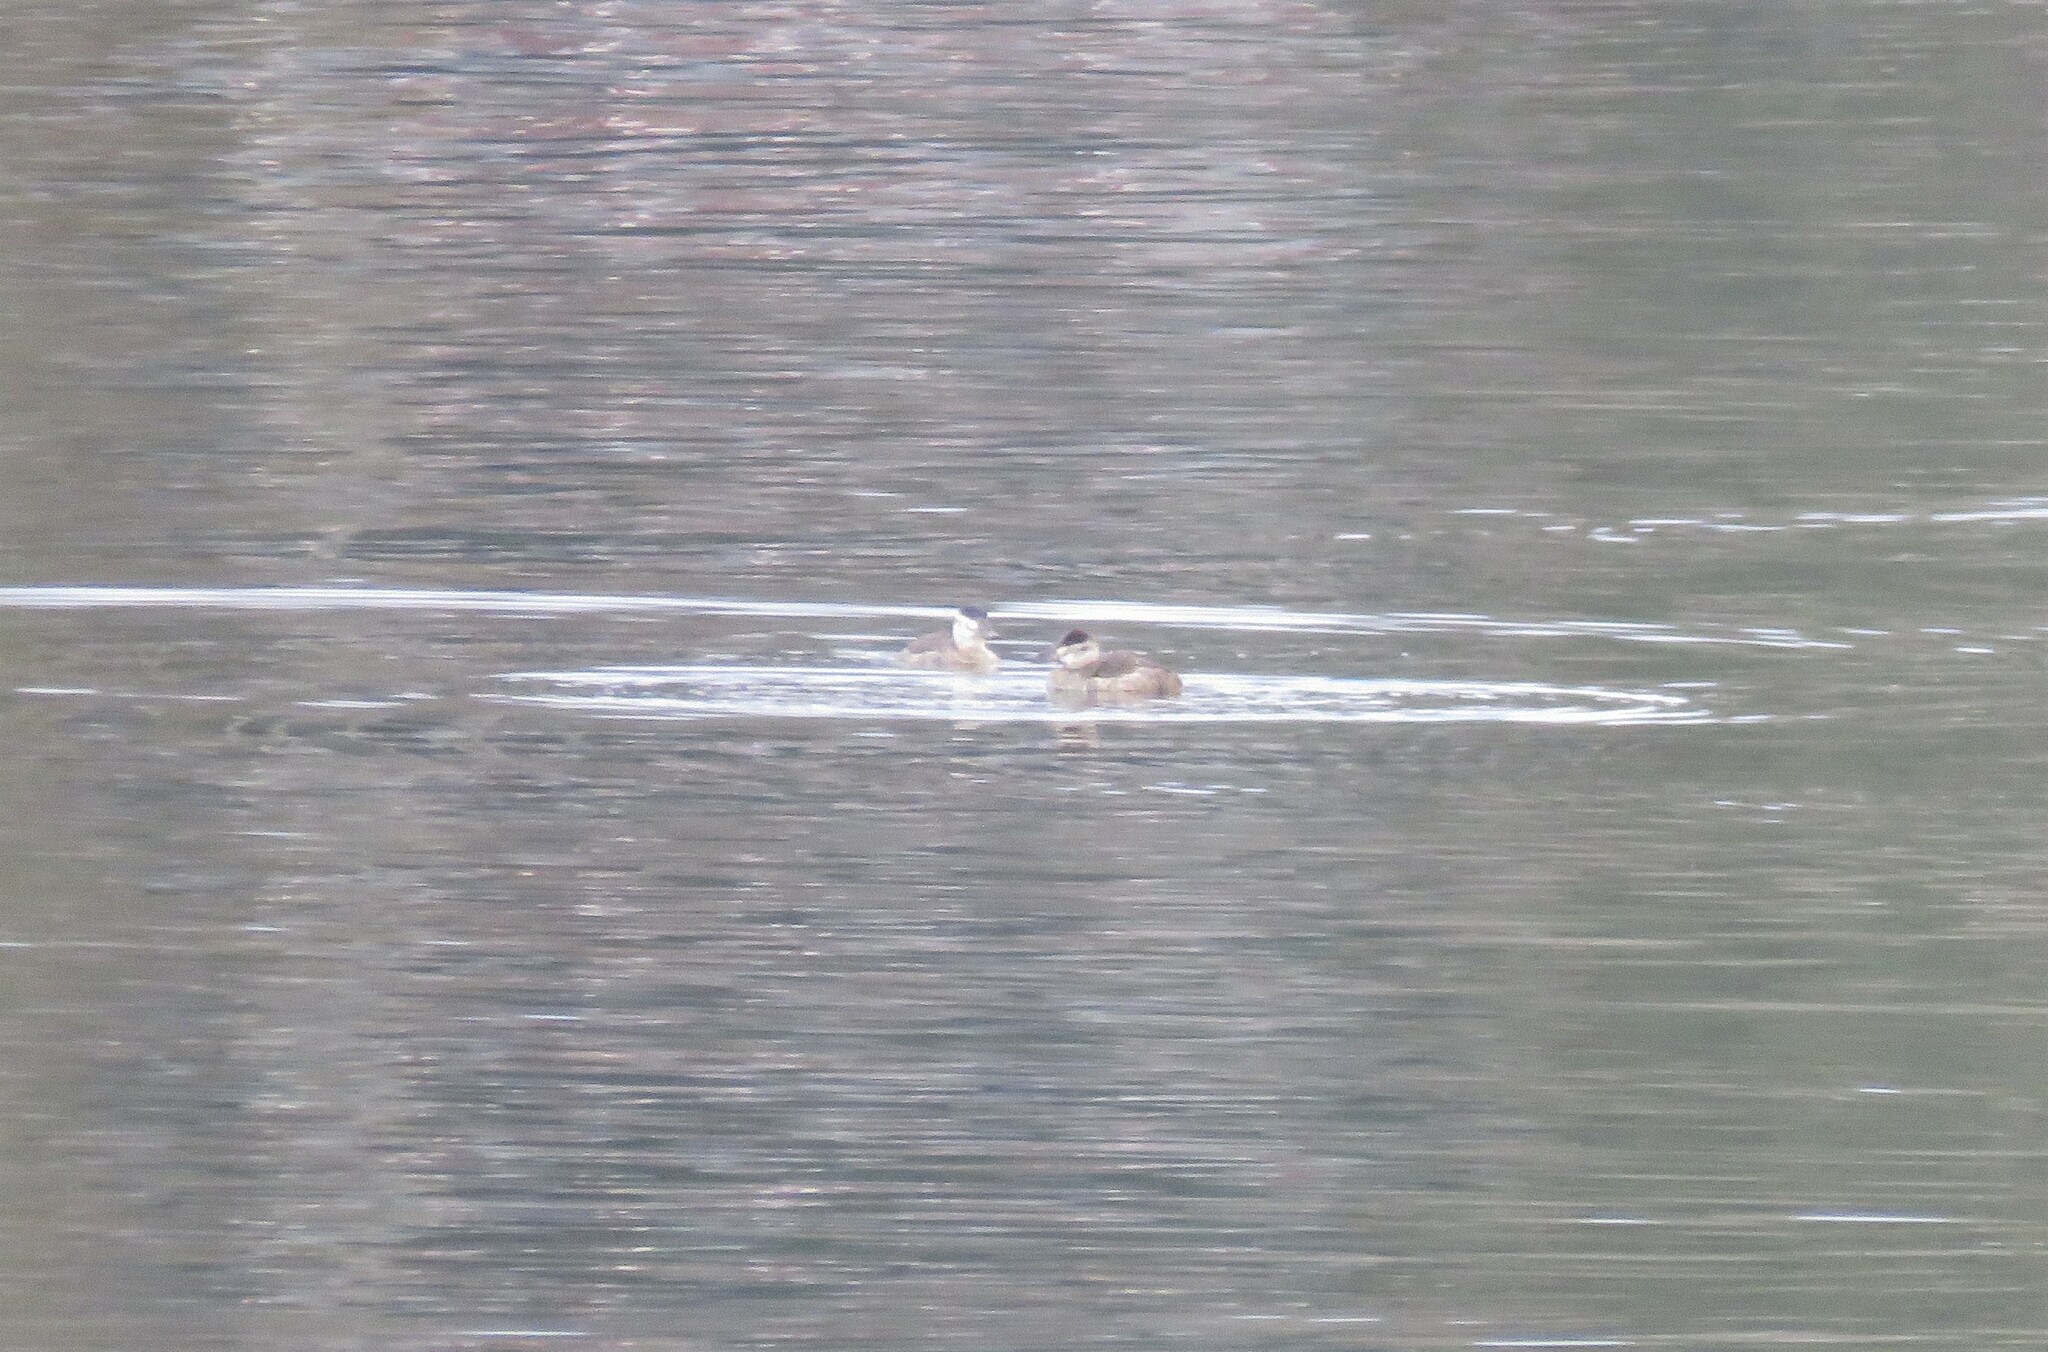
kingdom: Animalia
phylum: Chordata
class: Aves
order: Anseriformes
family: Anatidae
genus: Oxyura
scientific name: Oxyura jamaicensis
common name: Ruddy duck
